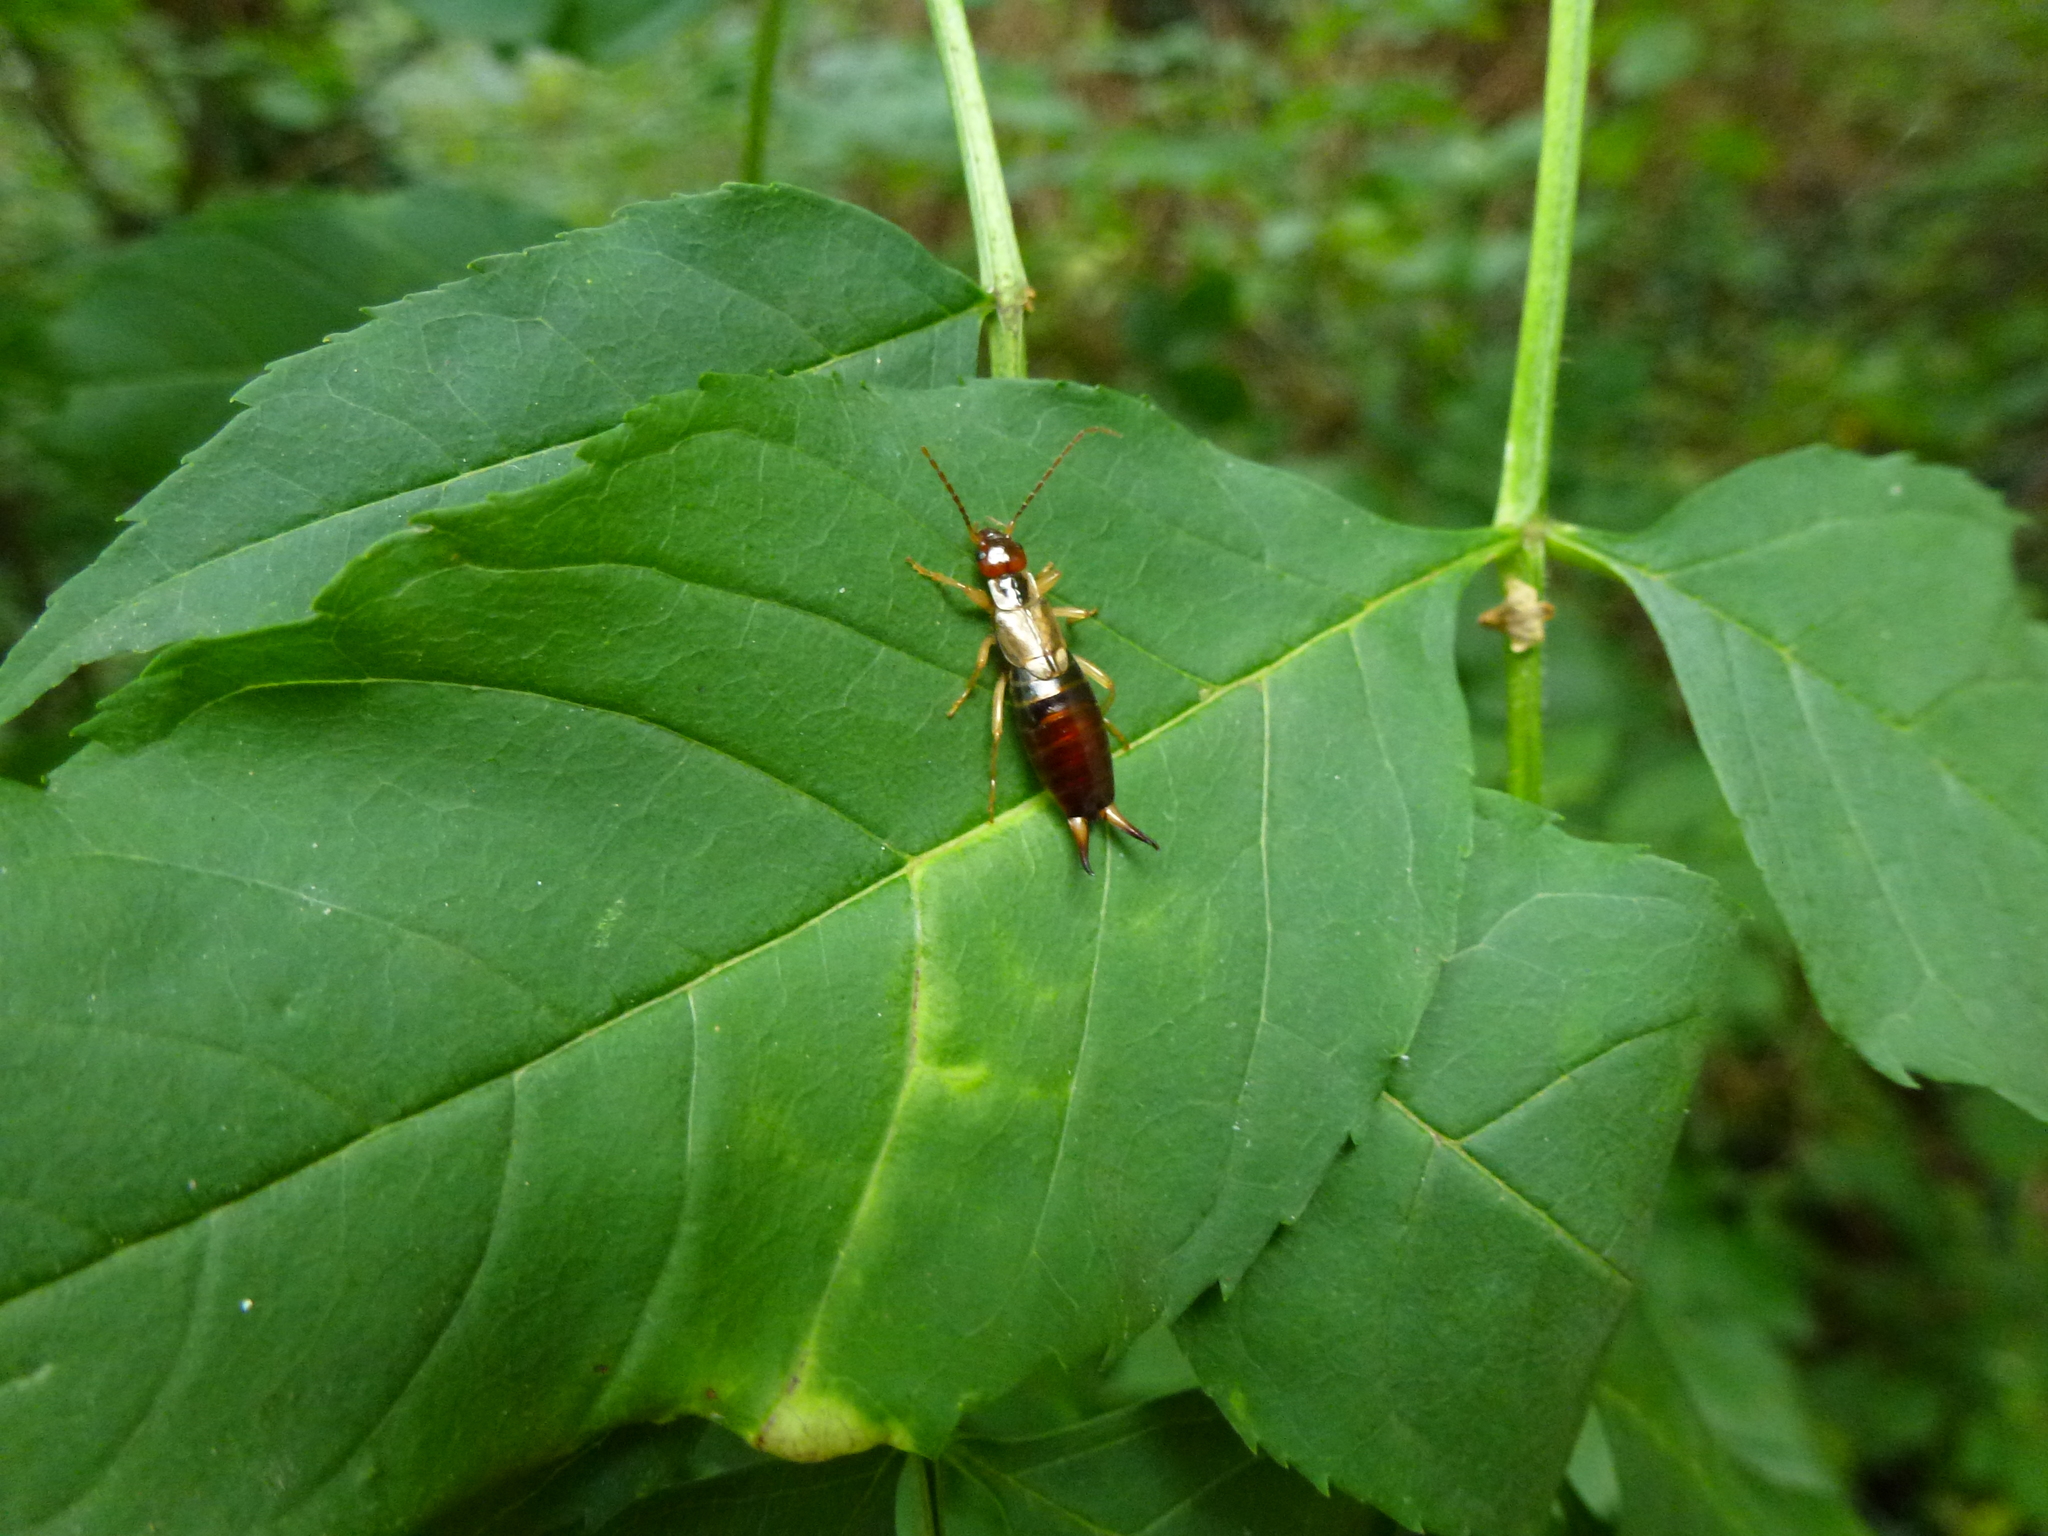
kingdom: Animalia
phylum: Arthropoda
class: Insecta
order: Dermaptera
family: Forficulidae
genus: Forficula
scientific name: Forficula
